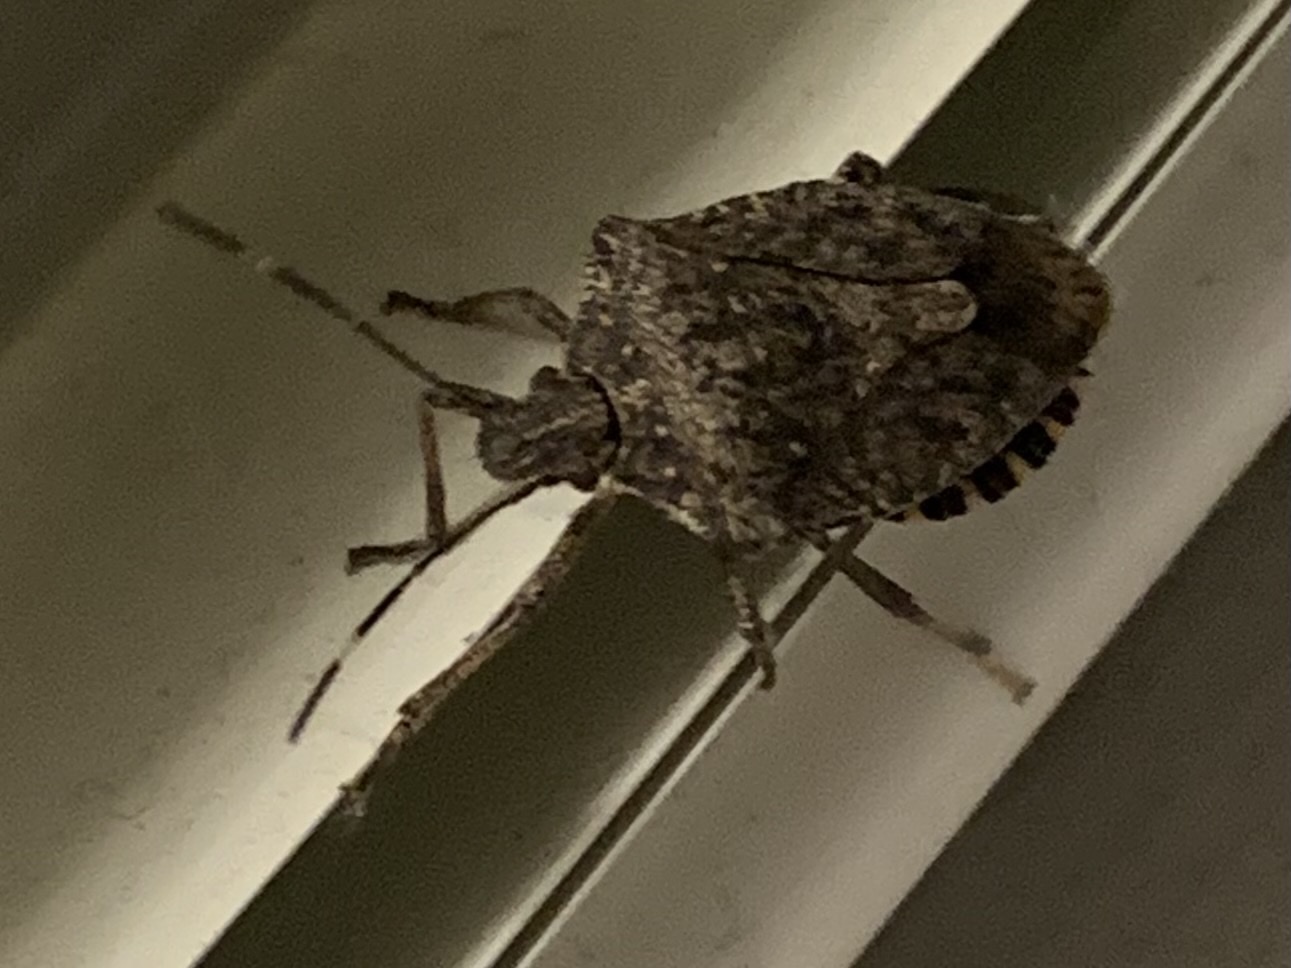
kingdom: Animalia
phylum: Arthropoda
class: Insecta
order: Hemiptera
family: Pentatomidae
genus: Halyomorpha
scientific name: Halyomorpha halys
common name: Brown marmorated stink bug
